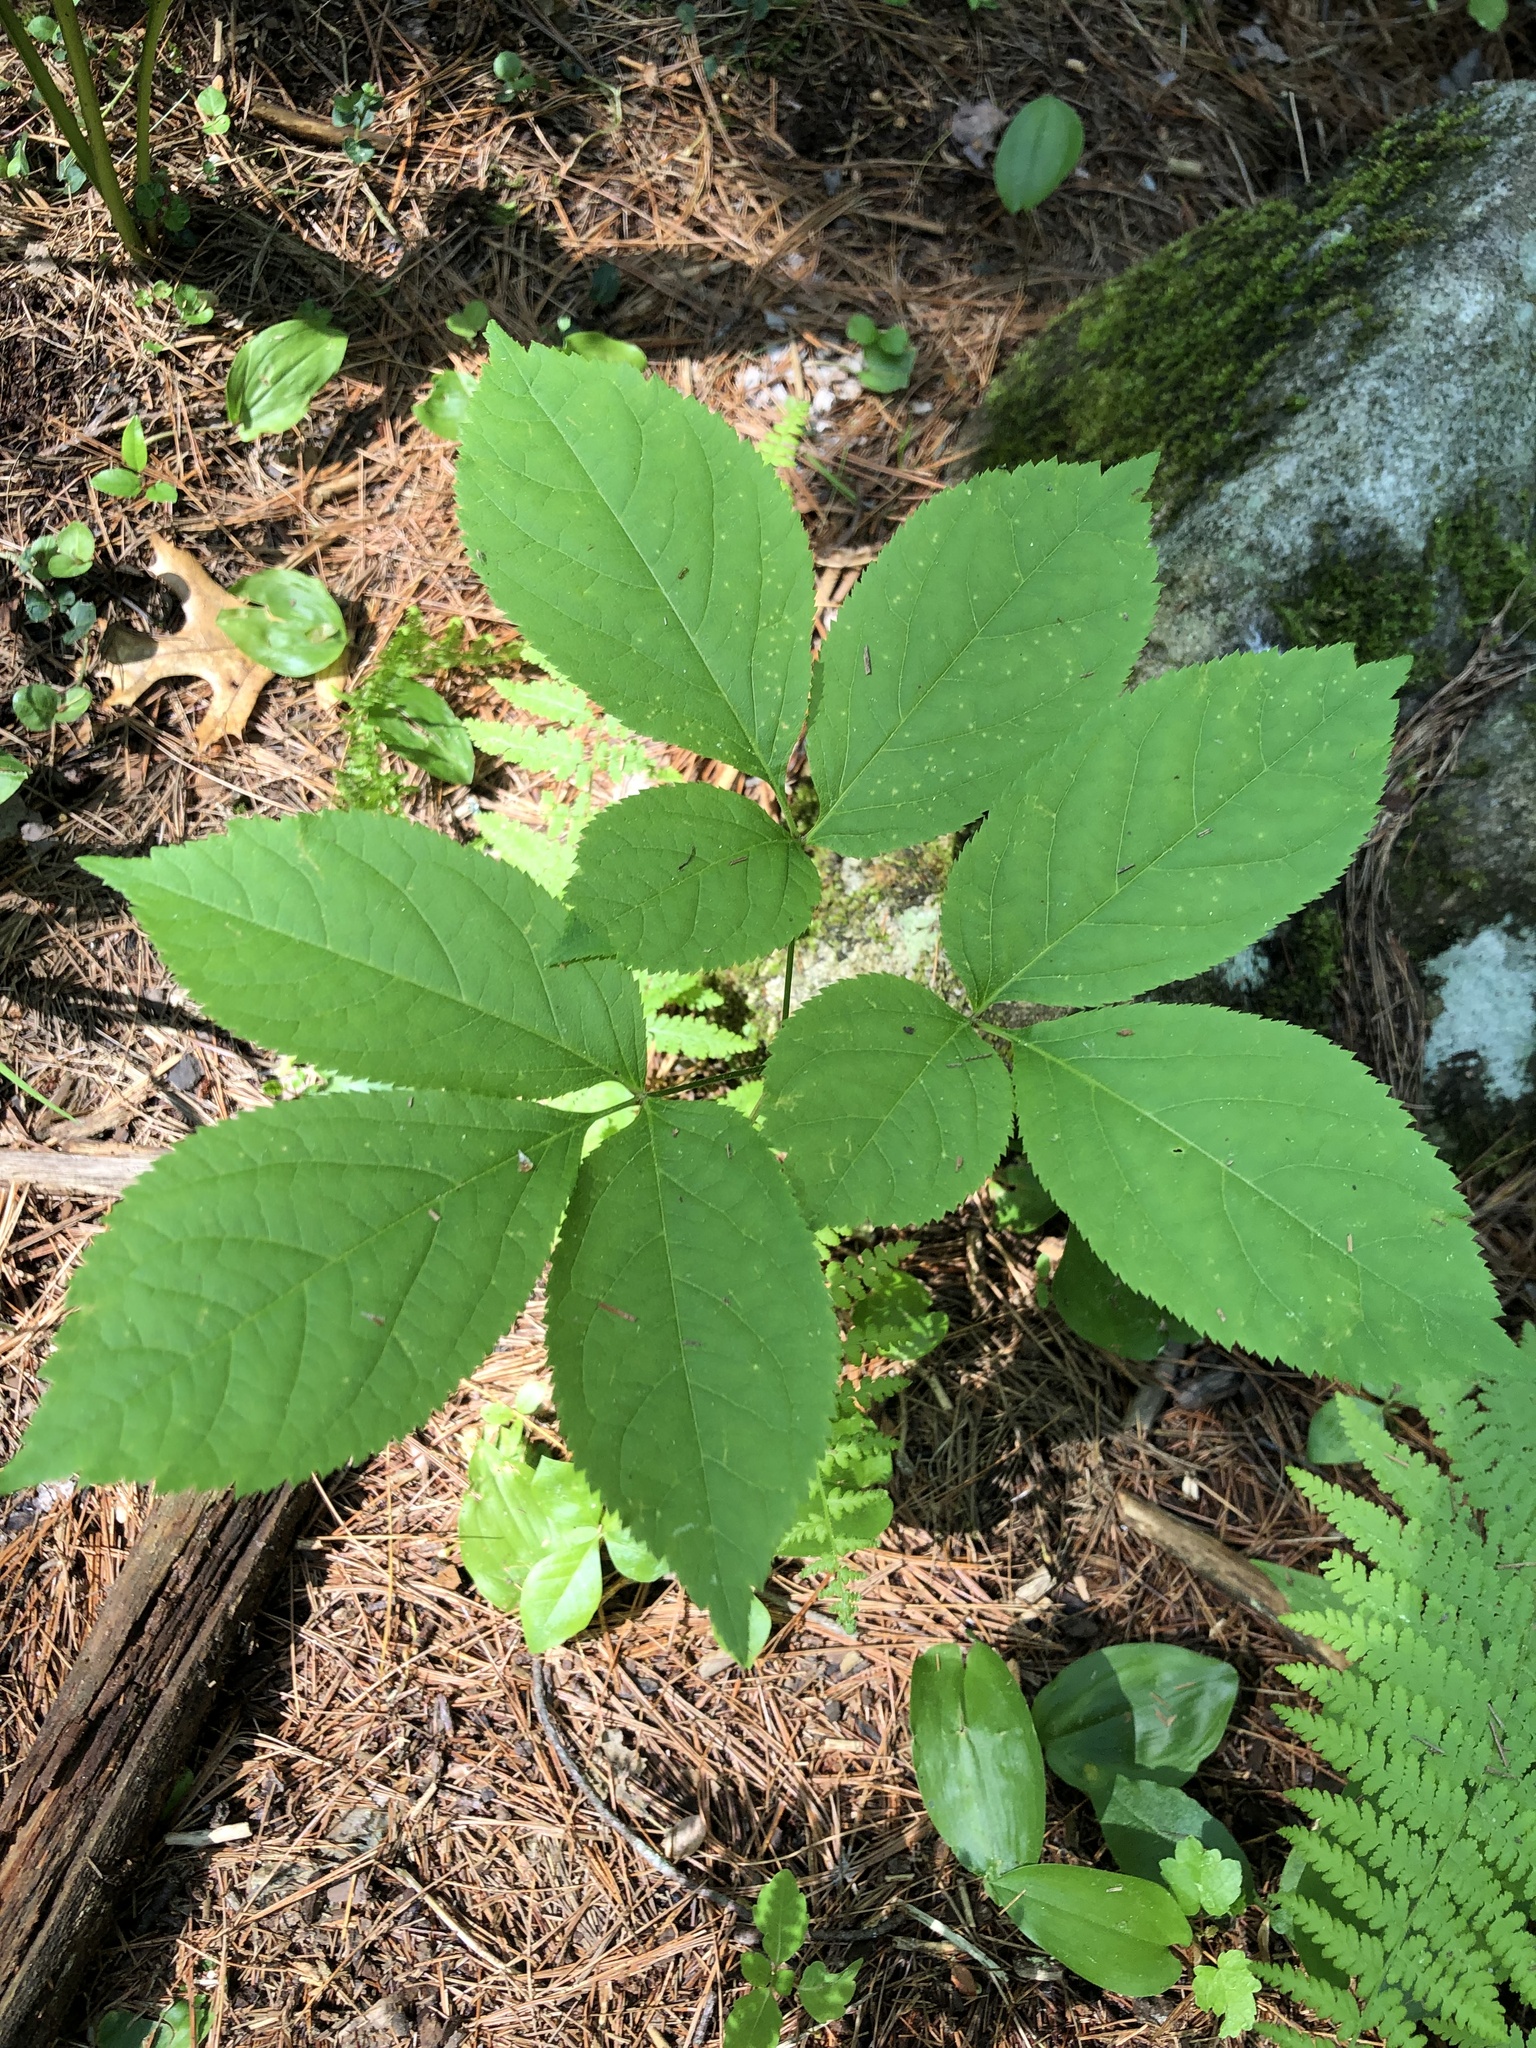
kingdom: Plantae
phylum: Tracheophyta
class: Magnoliopsida
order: Apiales
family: Araliaceae
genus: Aralia
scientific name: Aralia nudicaulis
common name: Wild sarsaparilla
